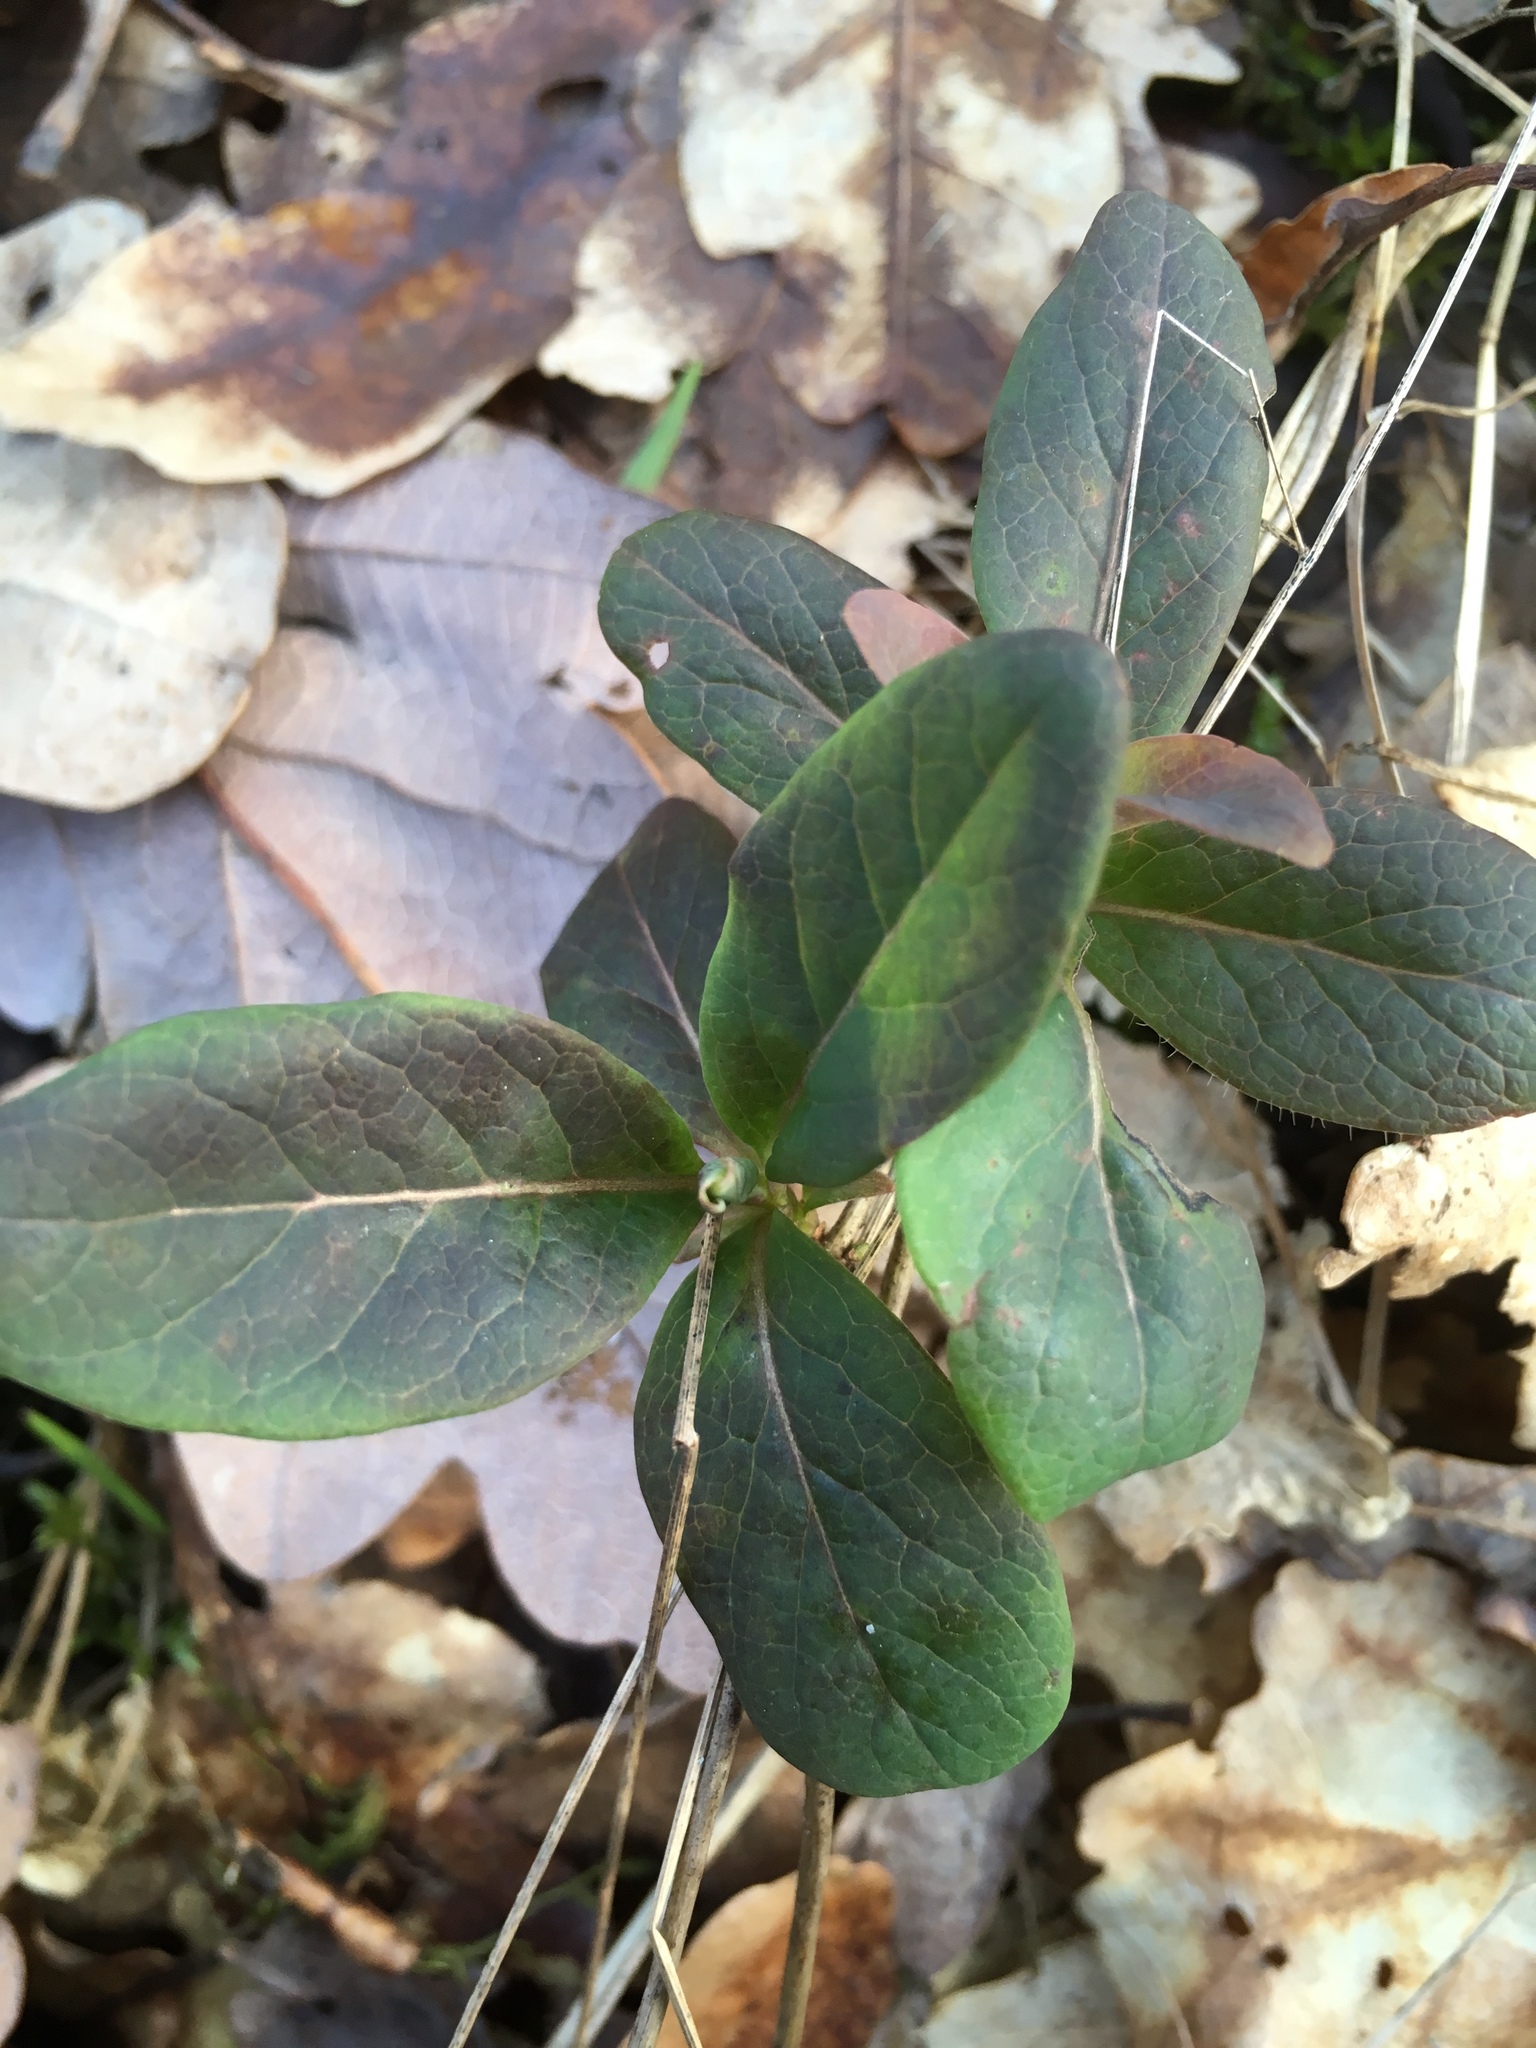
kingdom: Plantae
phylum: Tracheophyta
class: Magnoliopsida
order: Dipsacales
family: Caprifoliaceae
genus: Lonicera
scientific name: Lonicera periclymenum
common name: European honeysuckle
